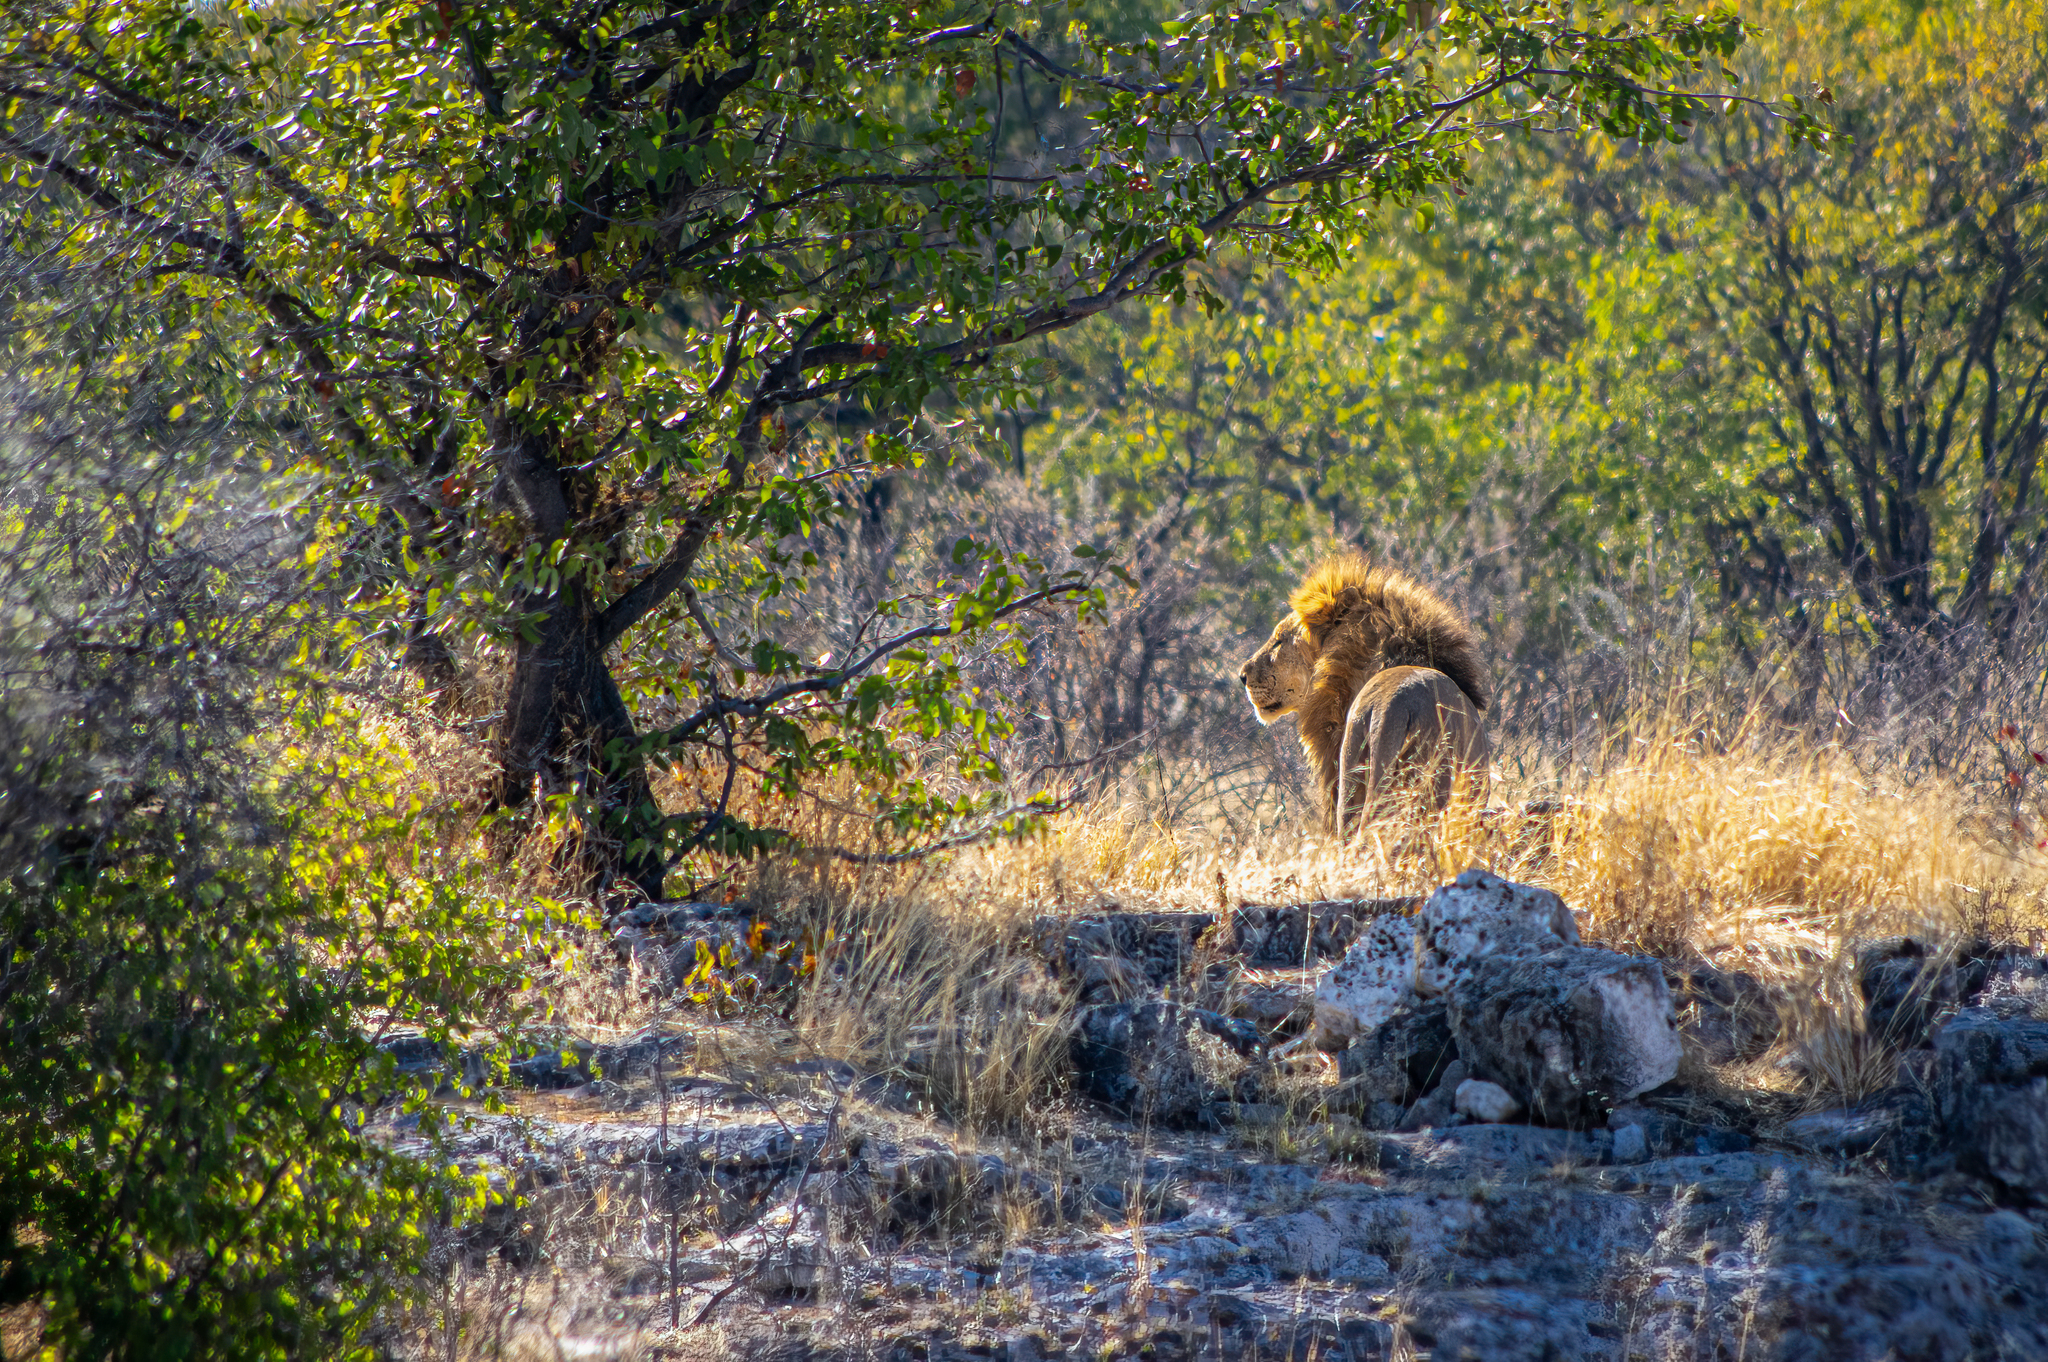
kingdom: Animalia
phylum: Chordata
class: Mammalia
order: Carnivora
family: Felidae
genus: Panthera
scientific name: Panthera leo
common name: Lion
